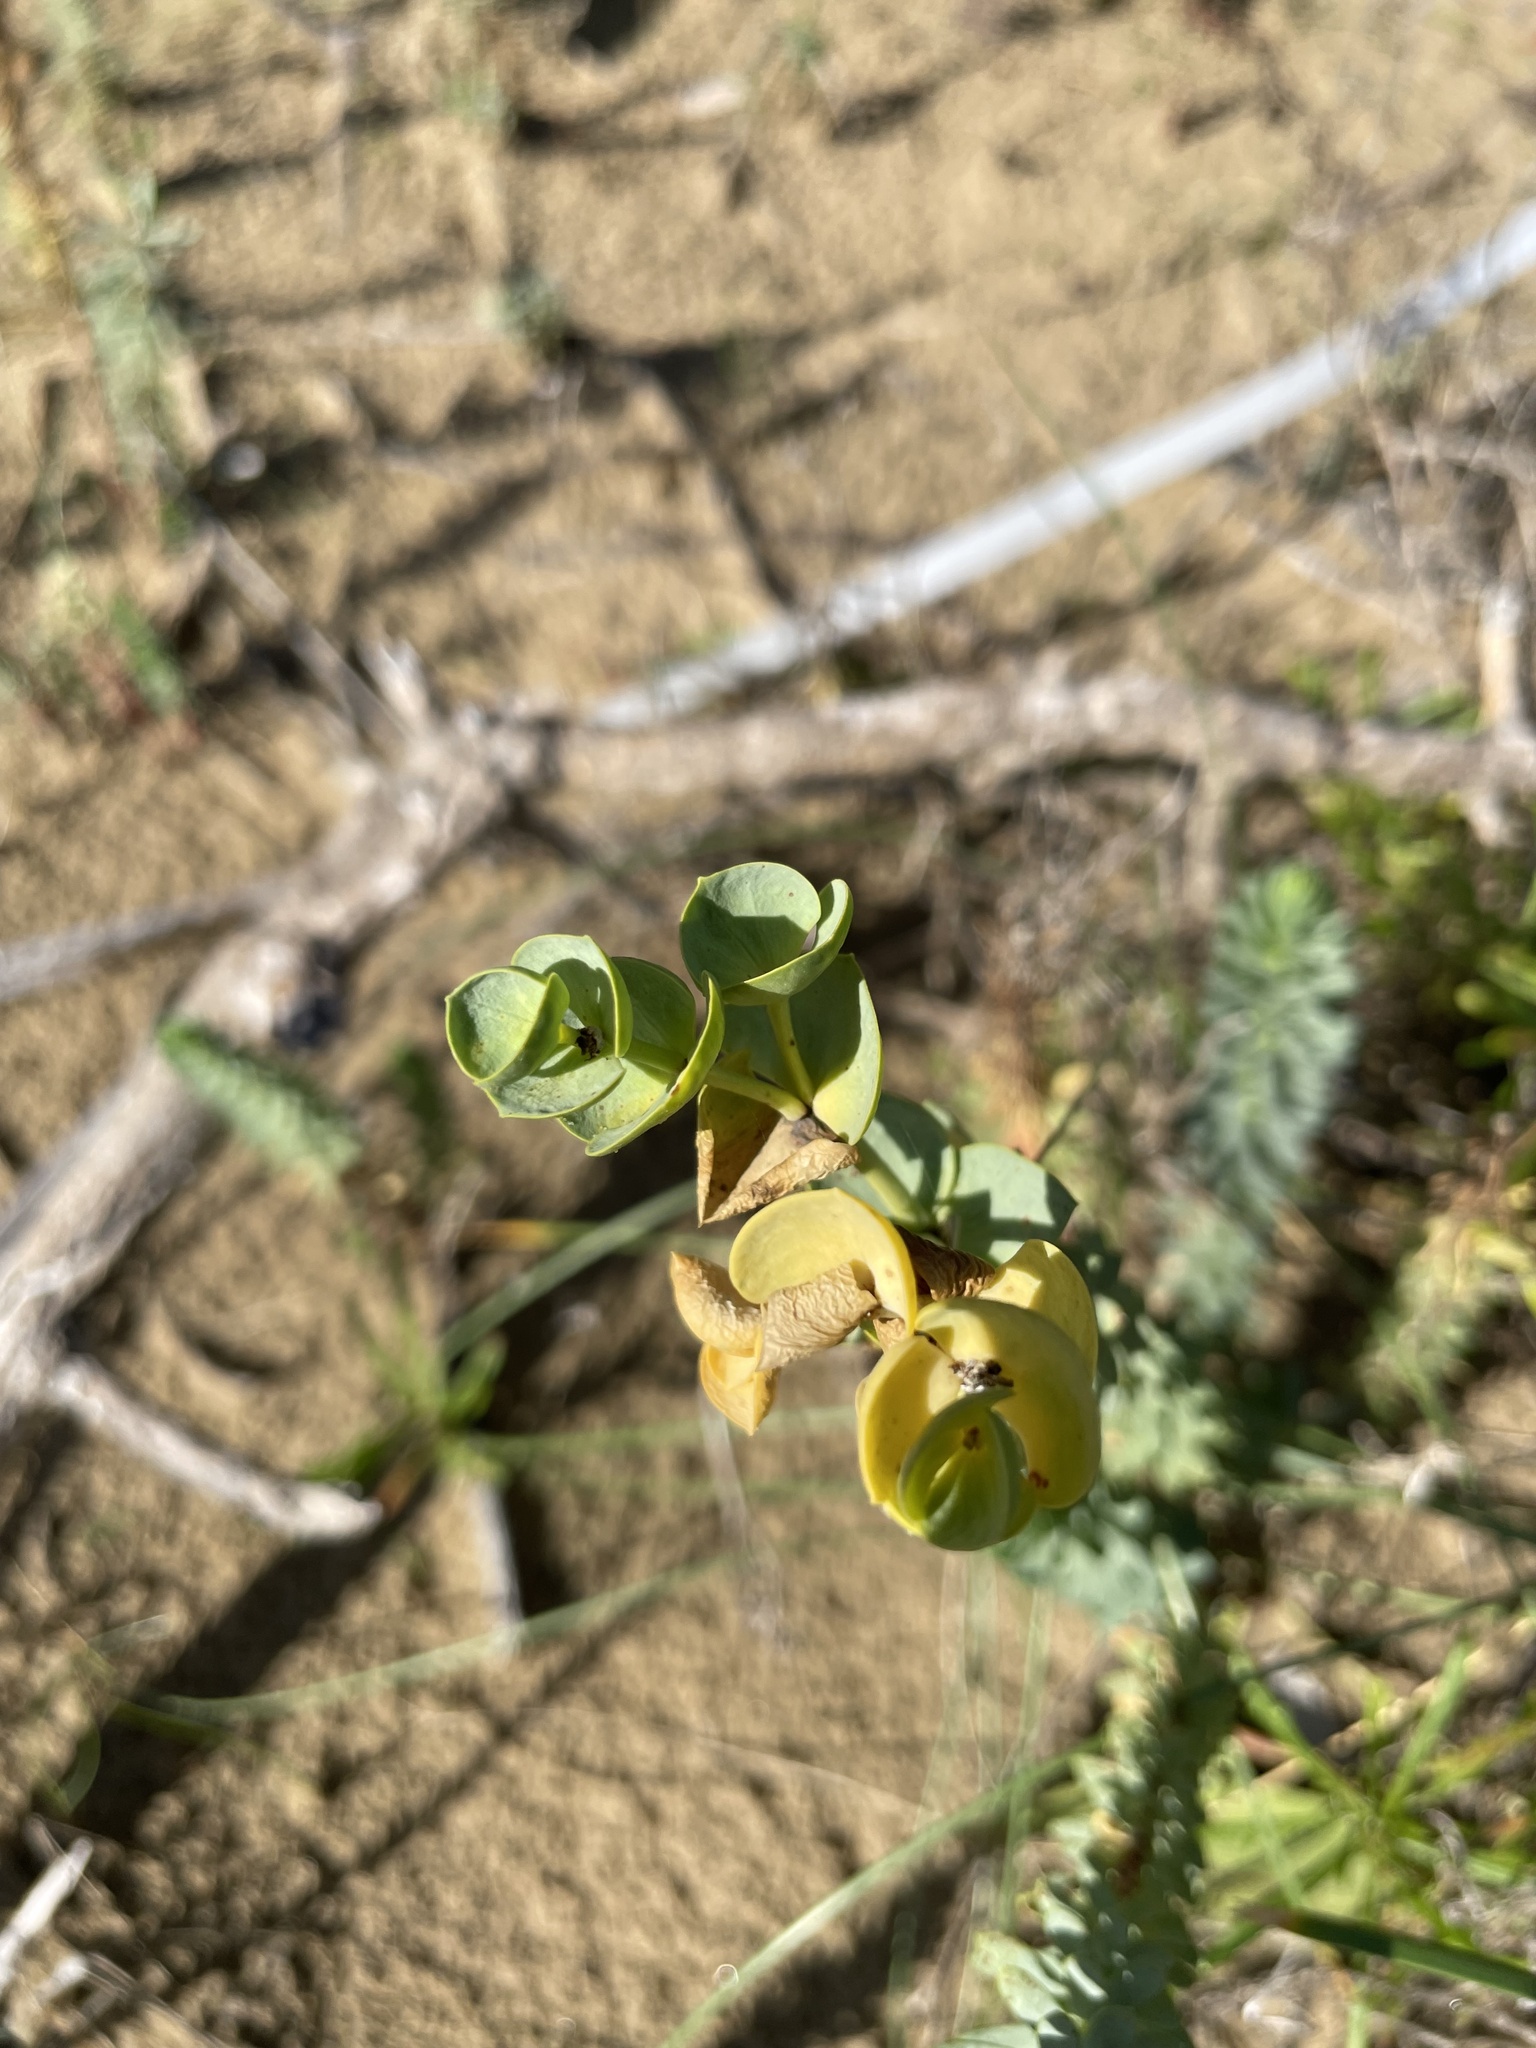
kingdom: Plantae
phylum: Tracheophyta
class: Magnoliopsida
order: Malpighiales
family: Euphorbiaceae
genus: Euphorbia
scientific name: Euphorbia paralias
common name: Sea spurge
